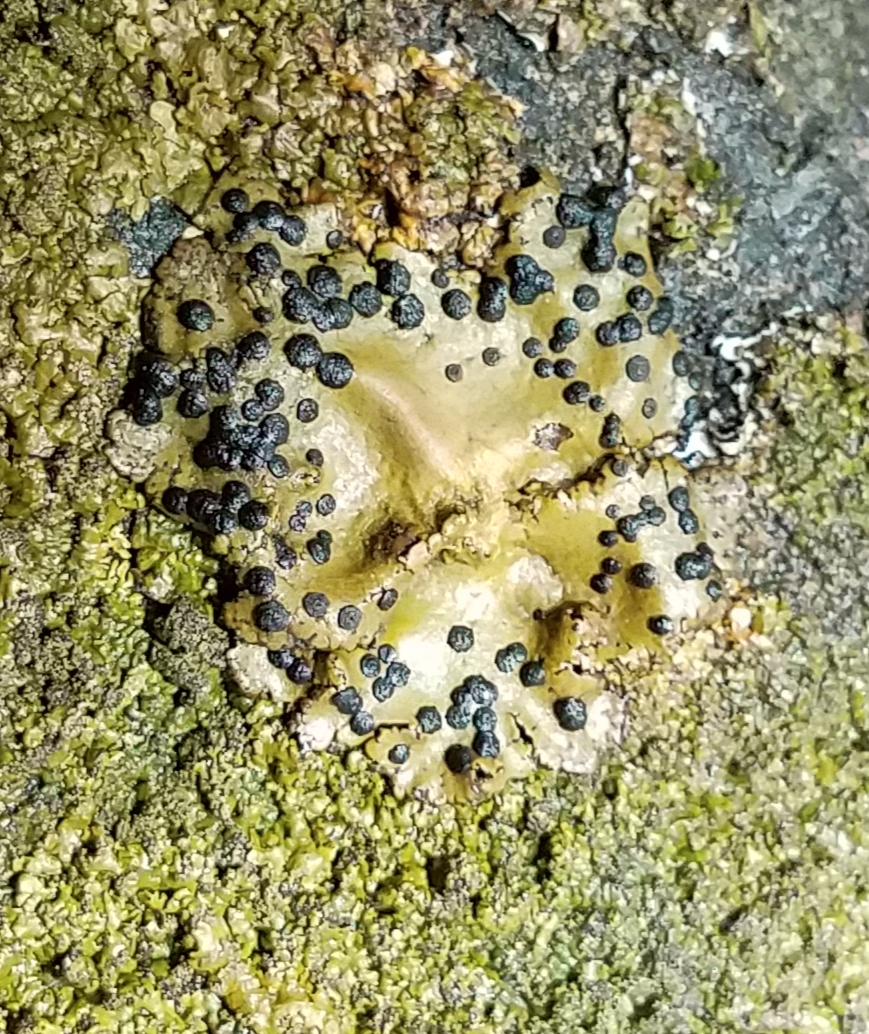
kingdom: Fungi
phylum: Ascomycota
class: Lecanoromycetes
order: Umbilicariales
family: Umbilicariaceae
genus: Umbilicaria
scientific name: Umbilicaria phaea
